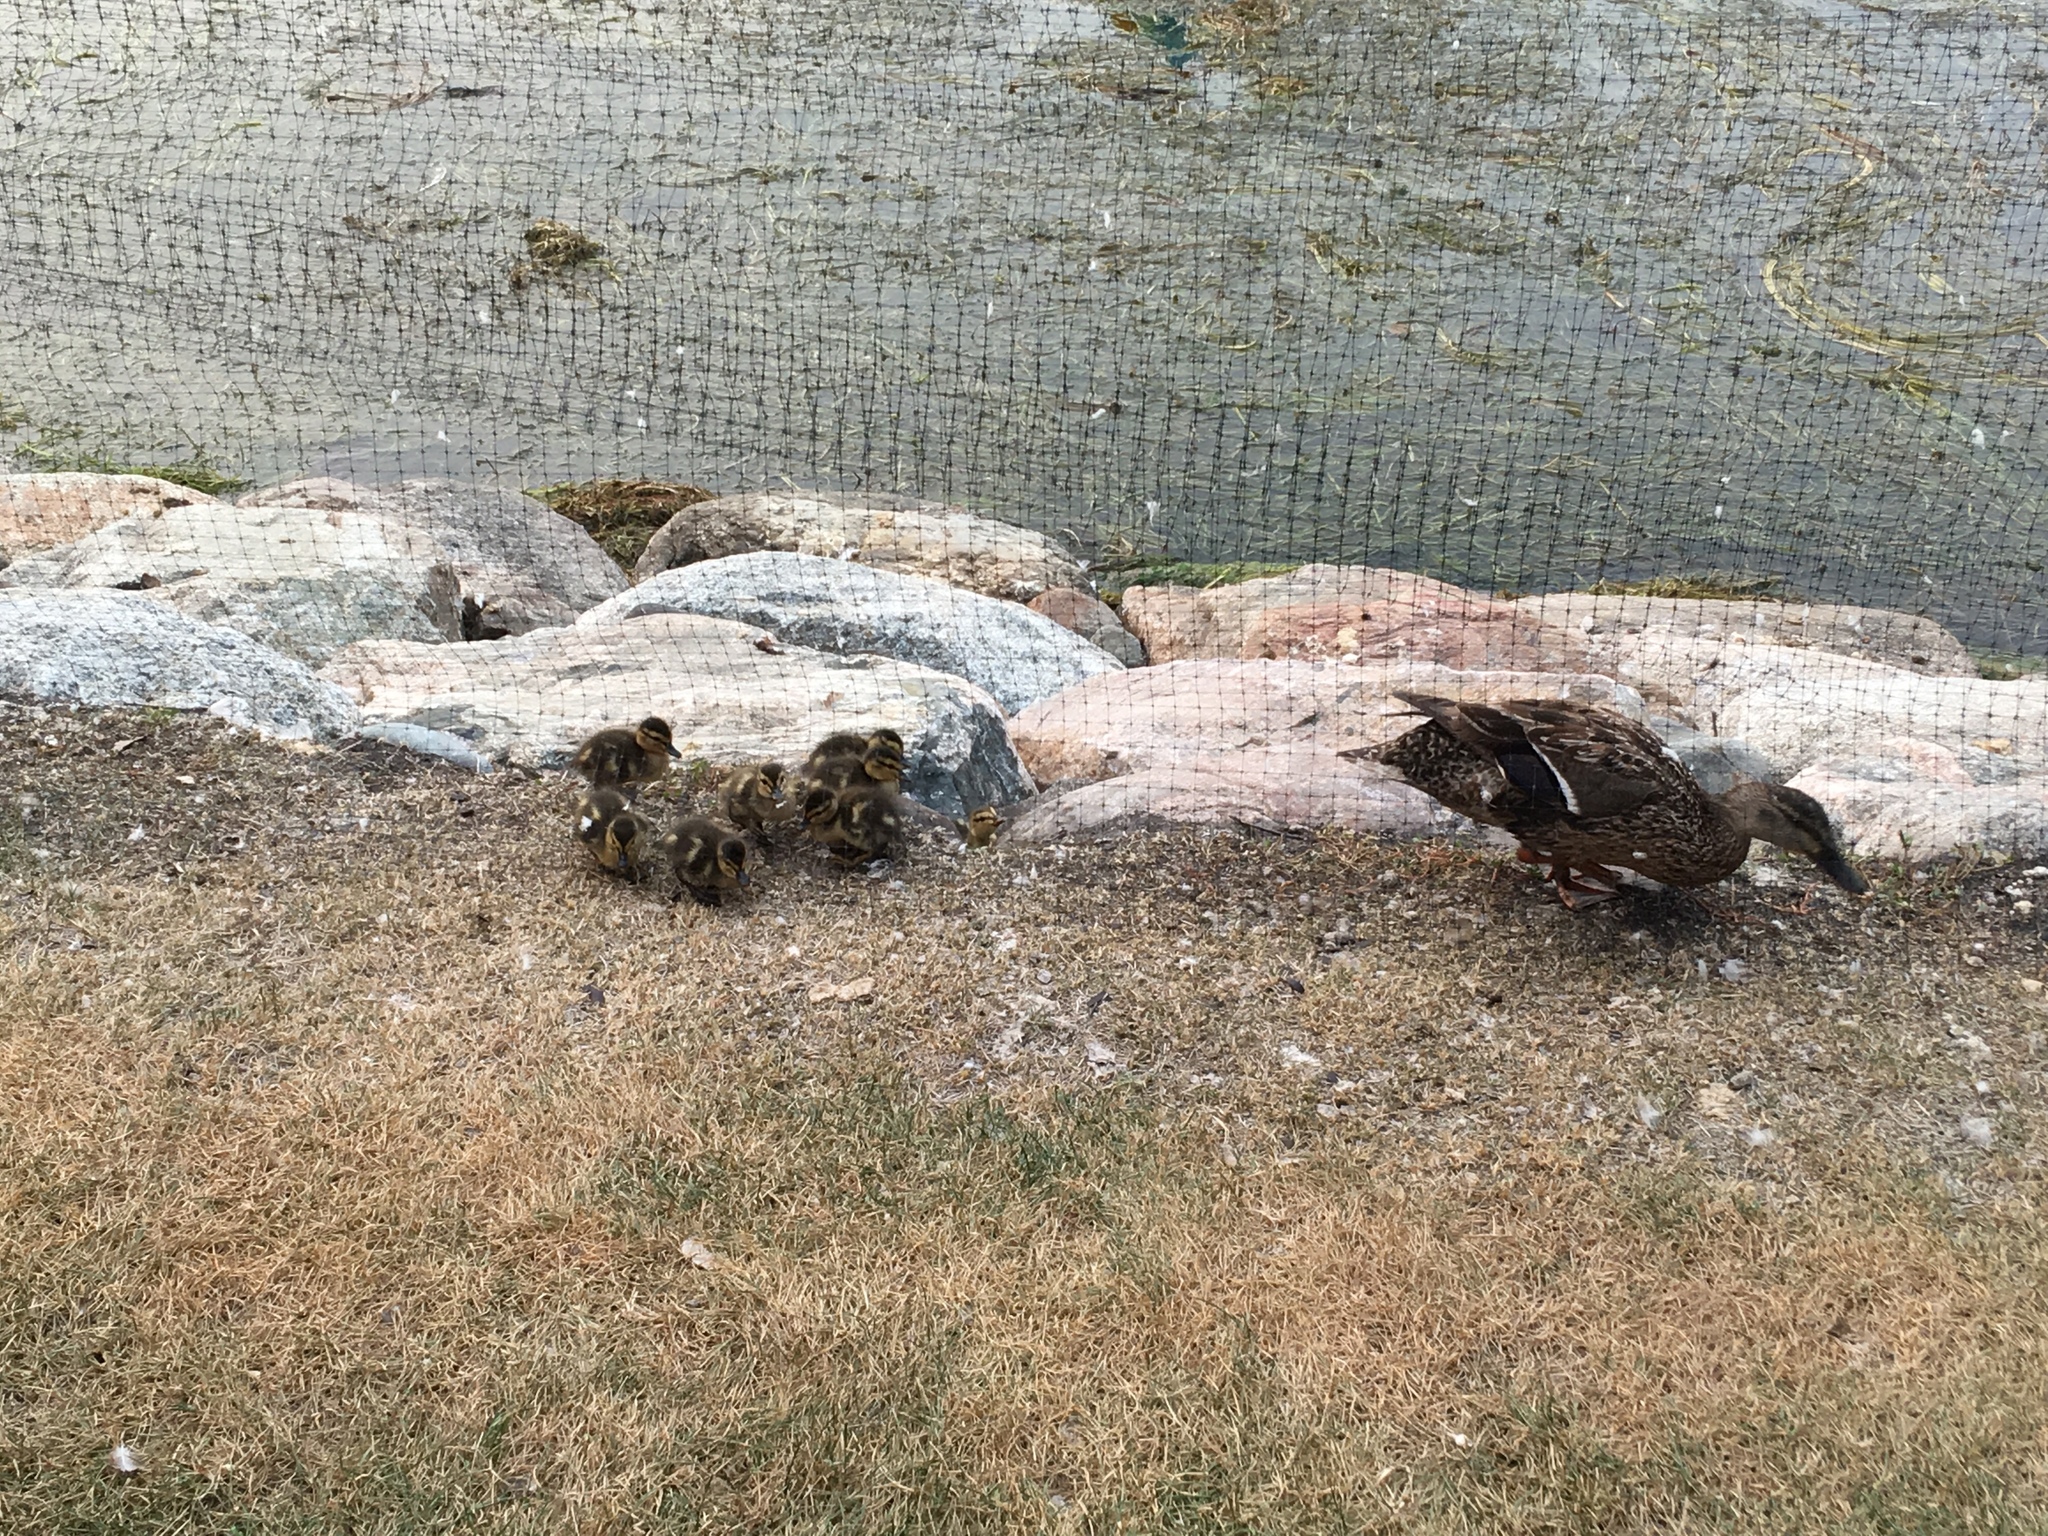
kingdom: Animalia
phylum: Chordata
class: Aves
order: Anseriformes
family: Anatidae
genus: Anas
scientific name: Anas platyrhynchos
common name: Mallard
